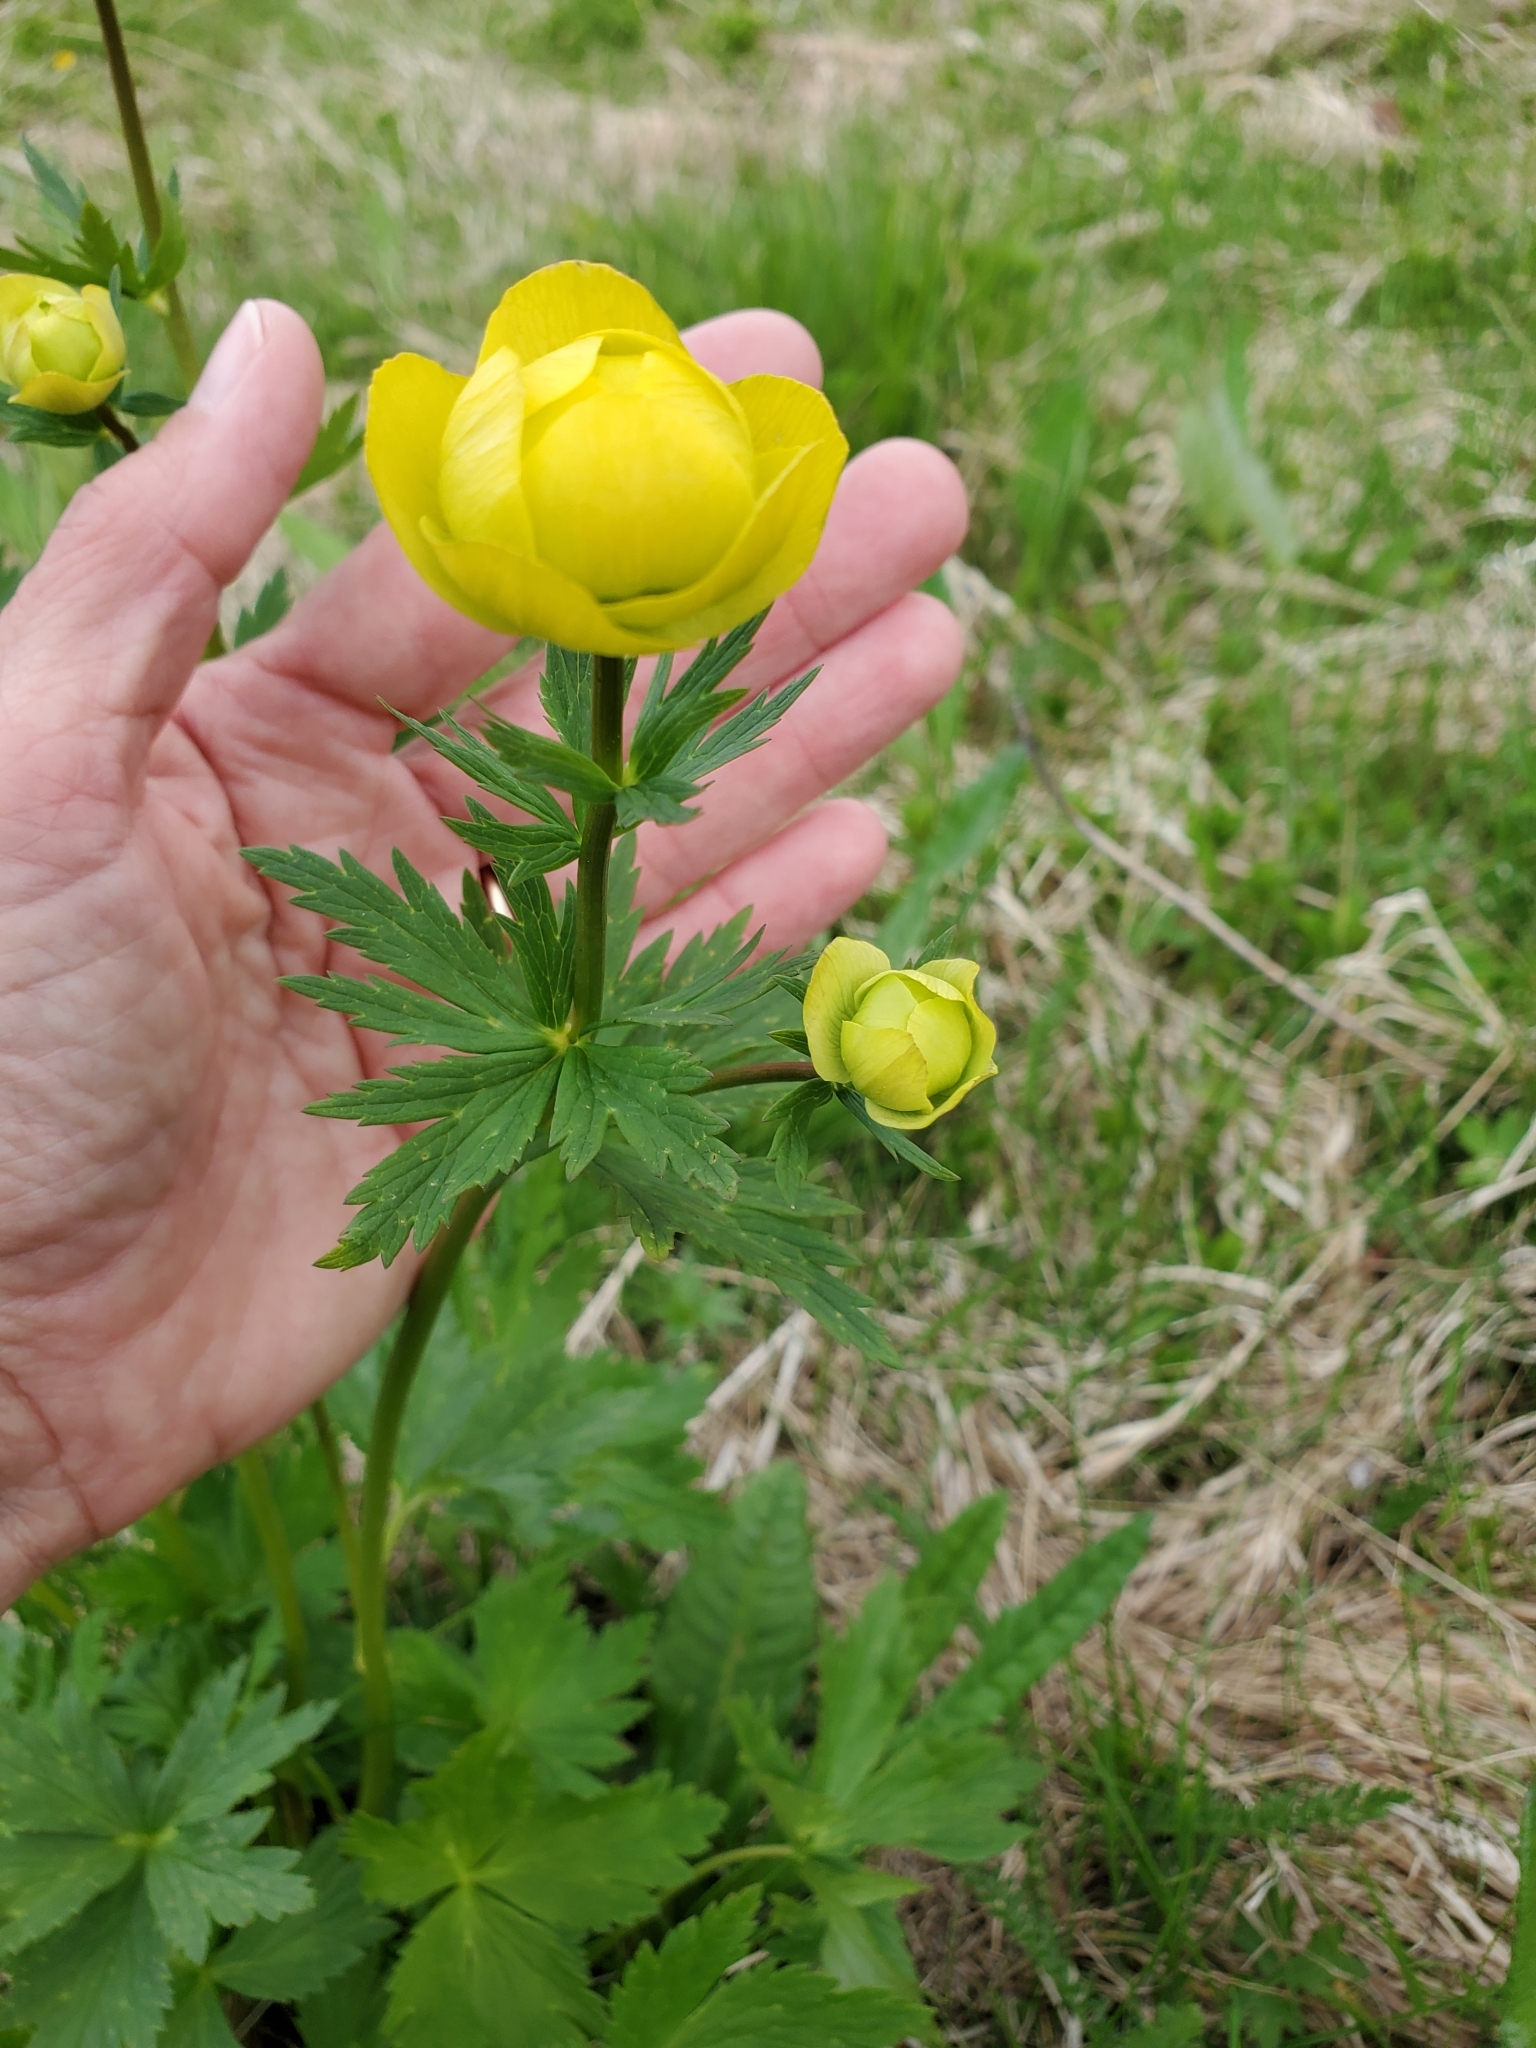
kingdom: Plantae
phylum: Tracheophyta
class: Magnoliopsida
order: Ranunculales
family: Ranunculaceae
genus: Trollius
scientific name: Trollius europaeus
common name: European globeflower
